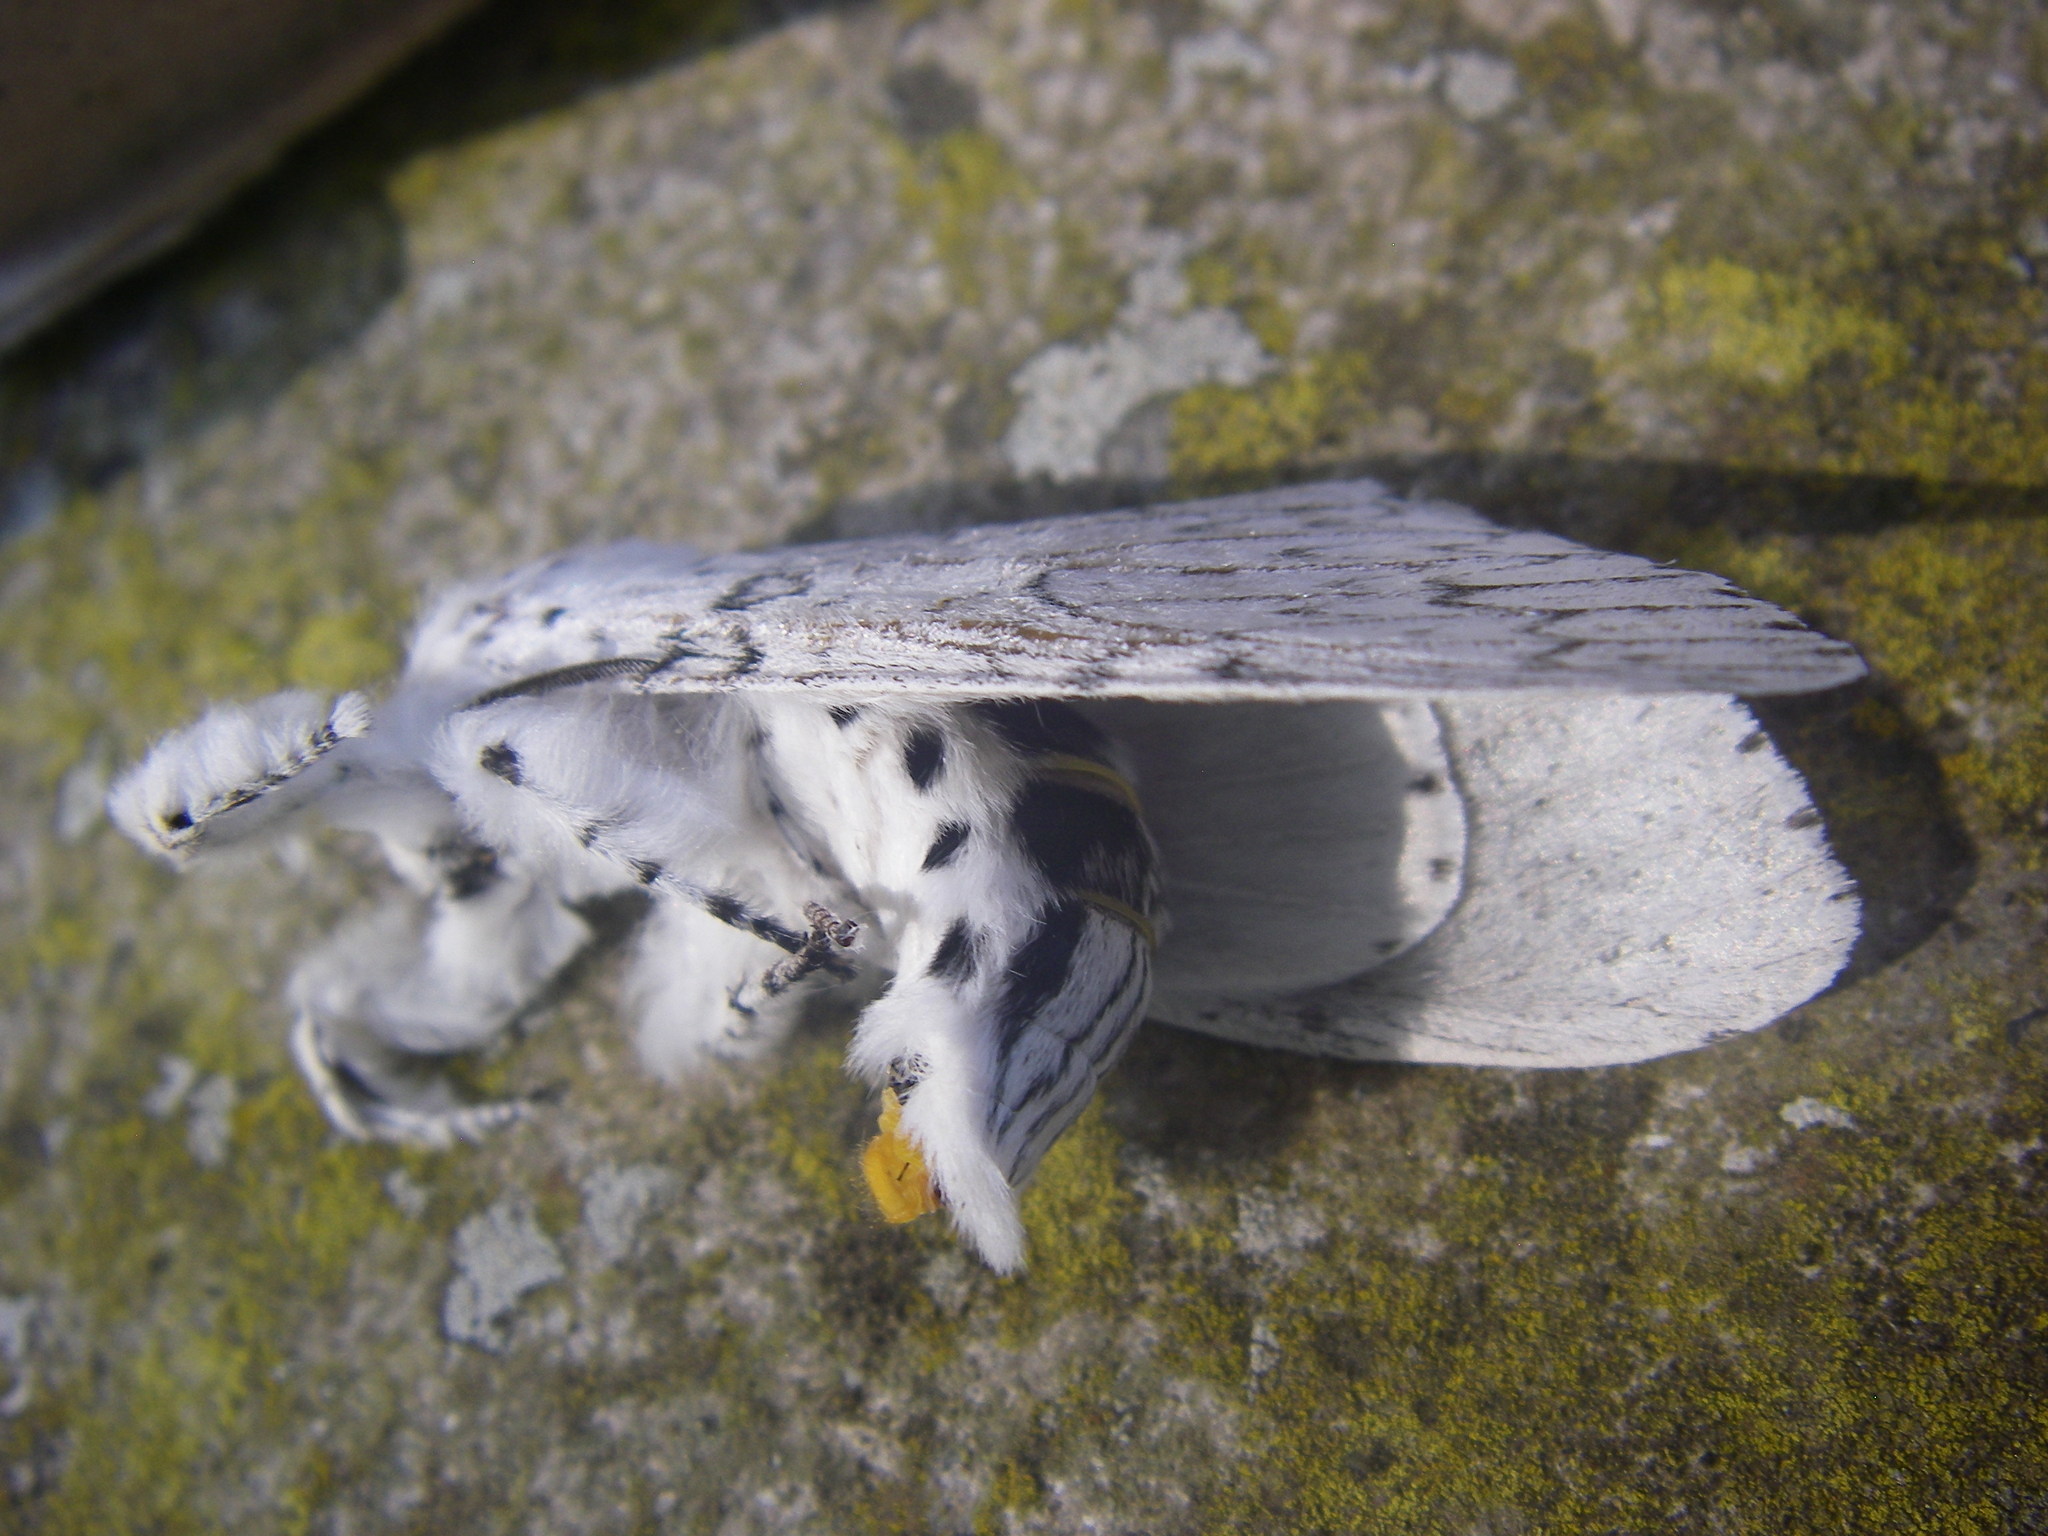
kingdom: Animalia
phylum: Arthropoda
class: Insecta
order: Lepidoptera
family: Notodontidae
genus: Cerura
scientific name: Cerura erminea
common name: Lesser puss moth
